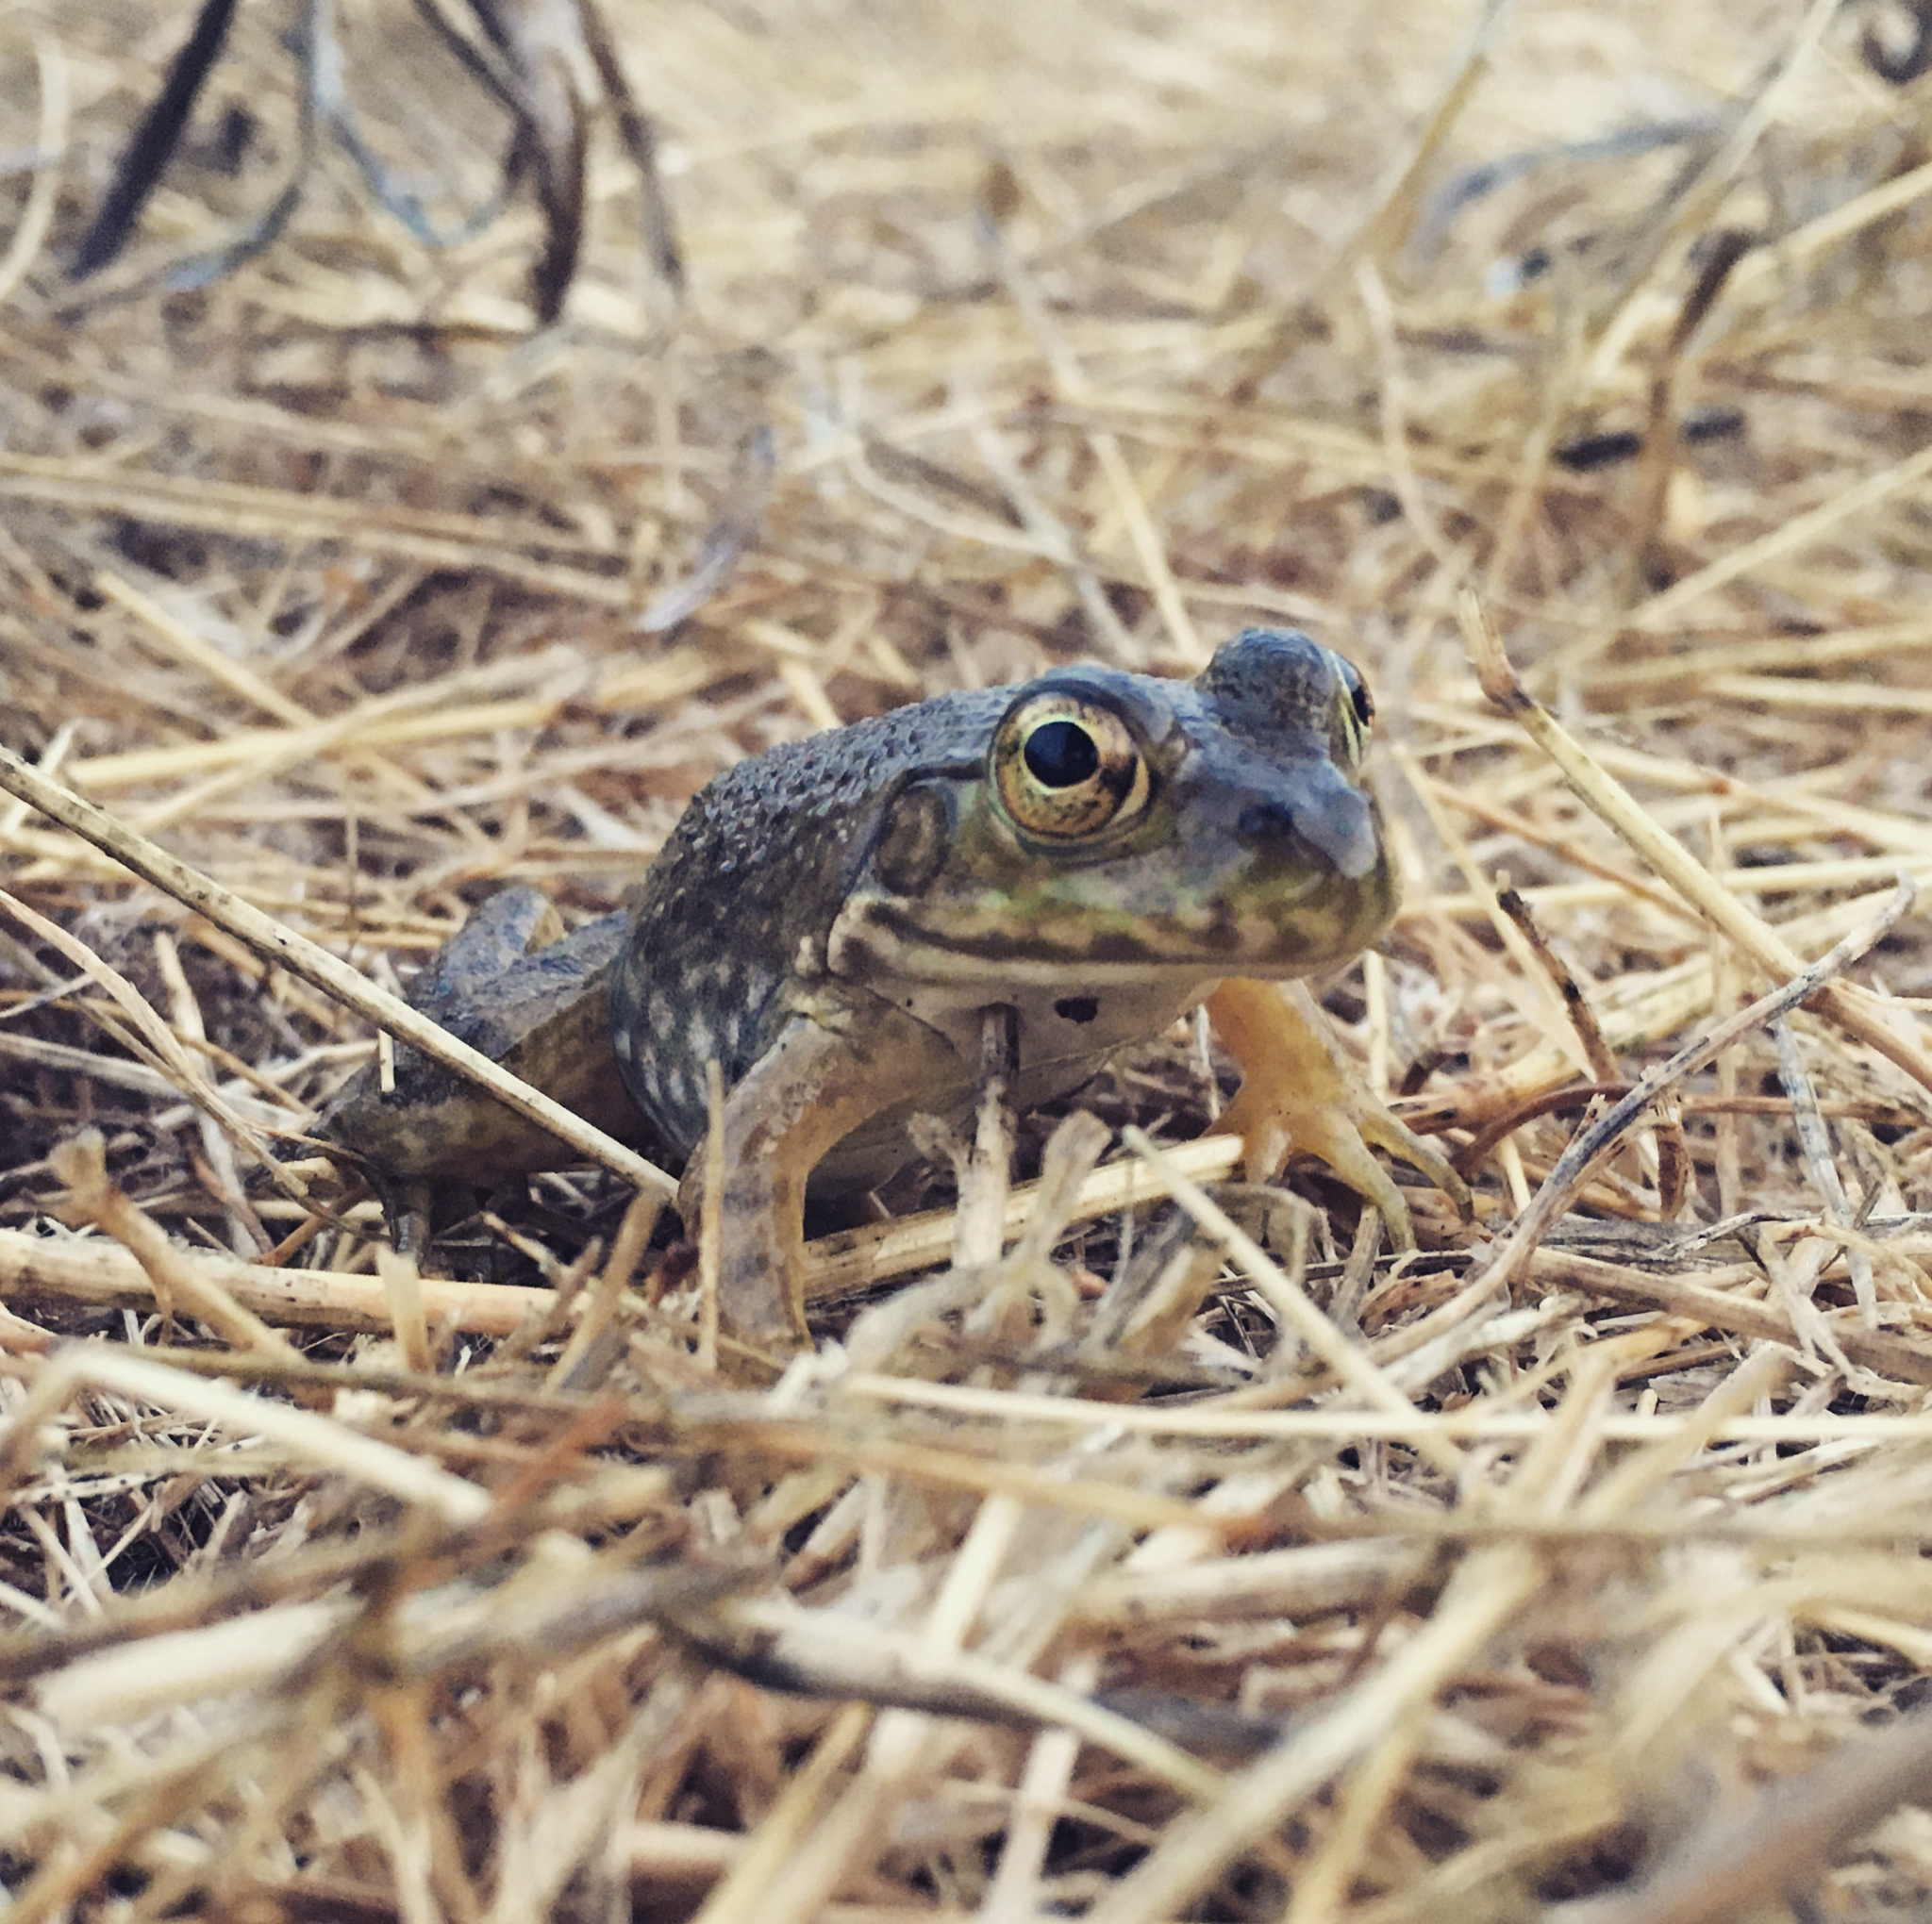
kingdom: Animalia
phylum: Chordata
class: Amphibia
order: Anura
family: Ranidae
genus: Lithobates
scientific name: Lithobates catesbeianus
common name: American bullfrog
